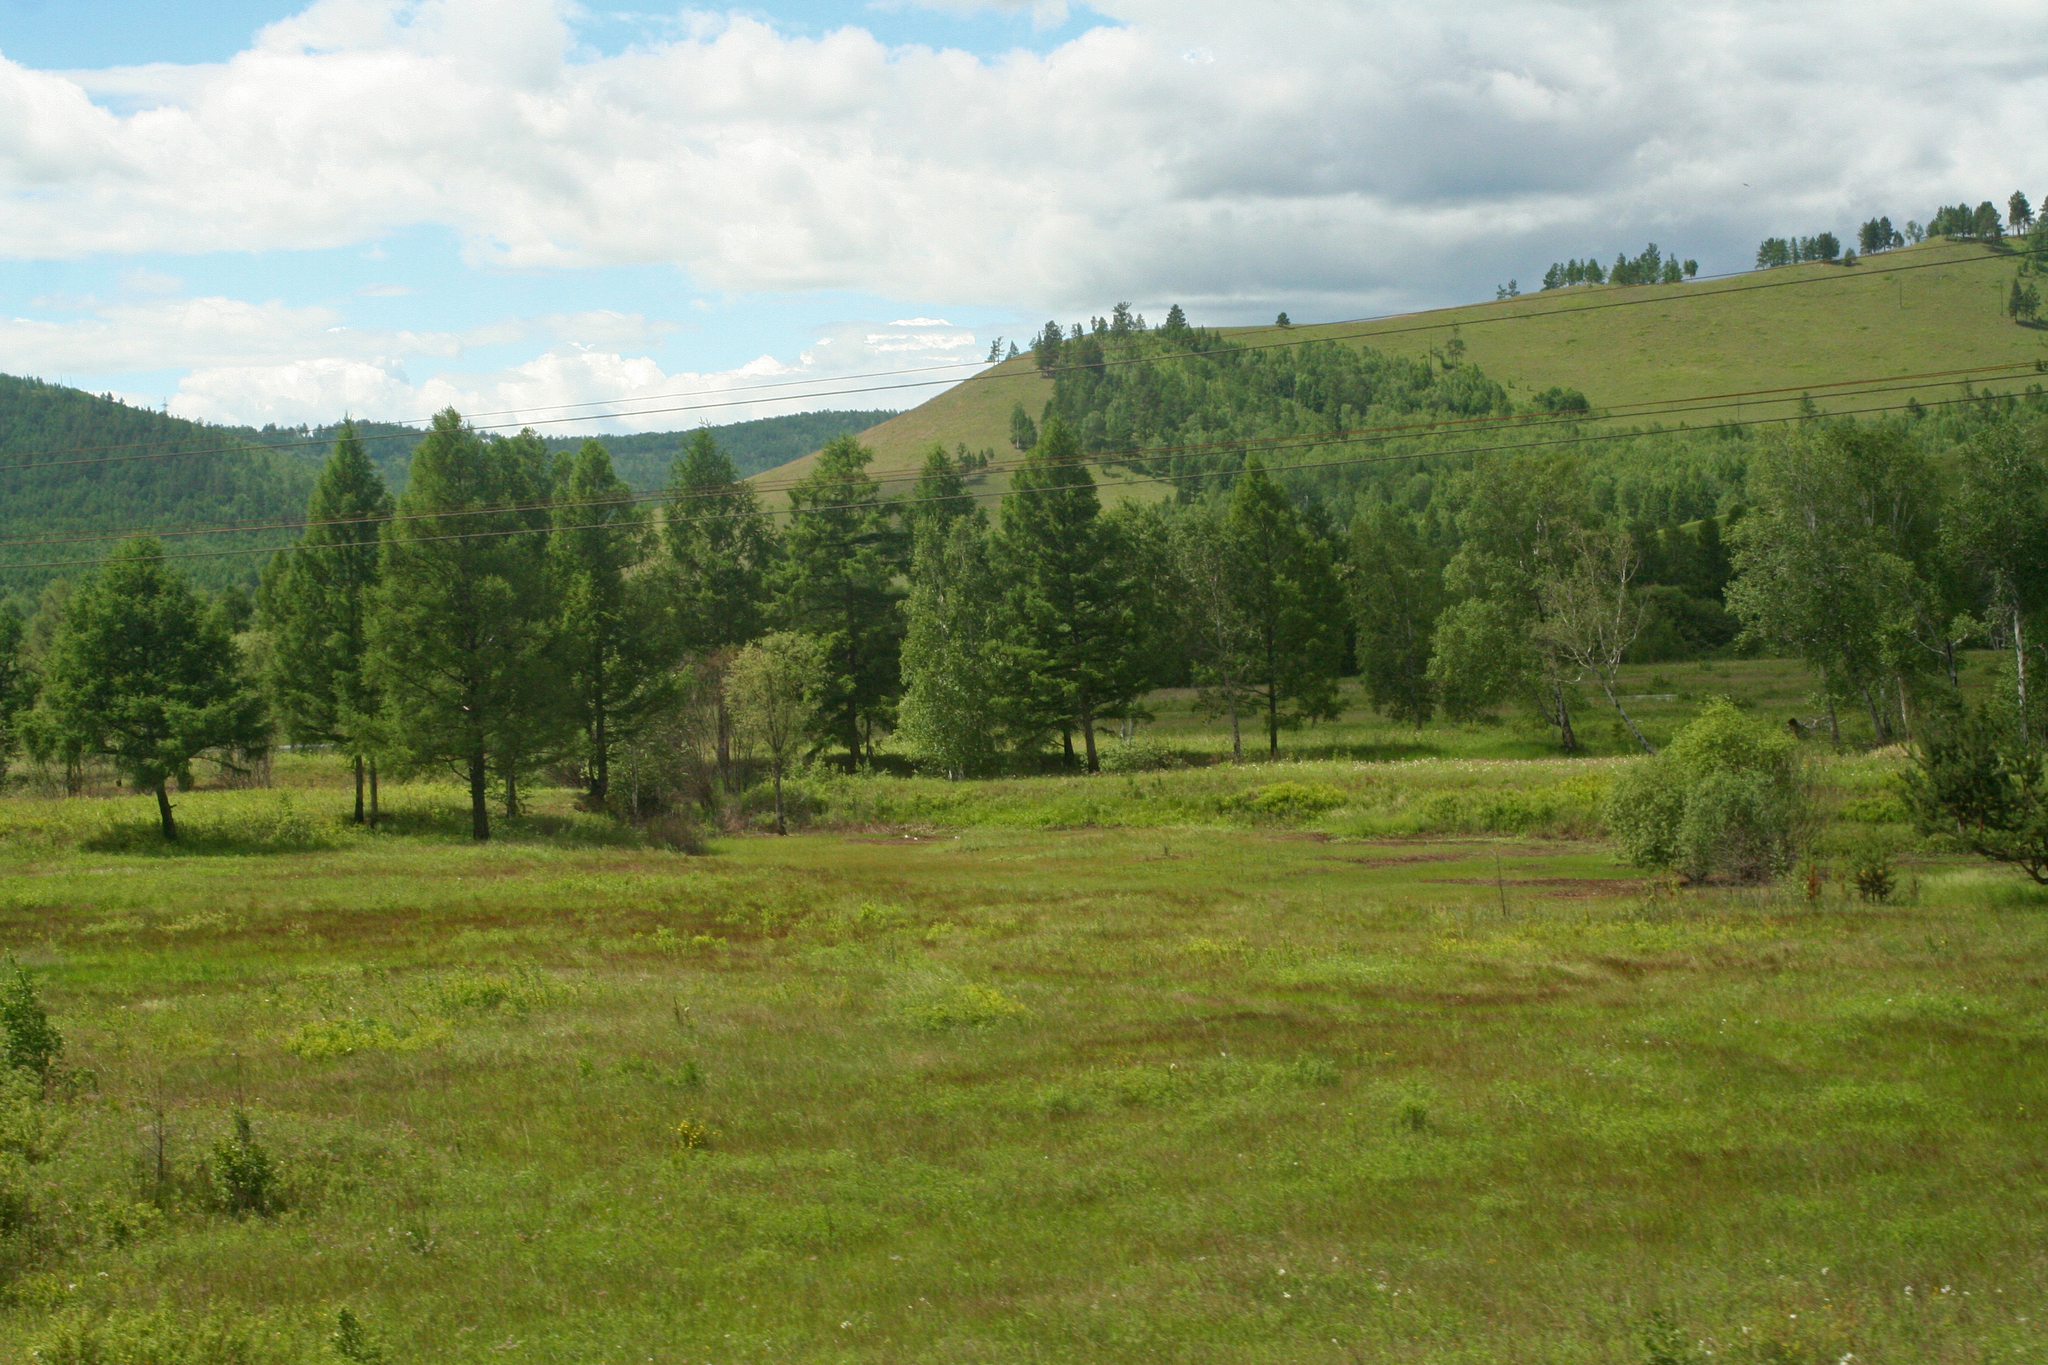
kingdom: Plantae
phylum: Tracheophyta
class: Pinopsida
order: Pinales
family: Pinaceae
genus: Larix
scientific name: Larix gmelinii
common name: Dahurian larch
